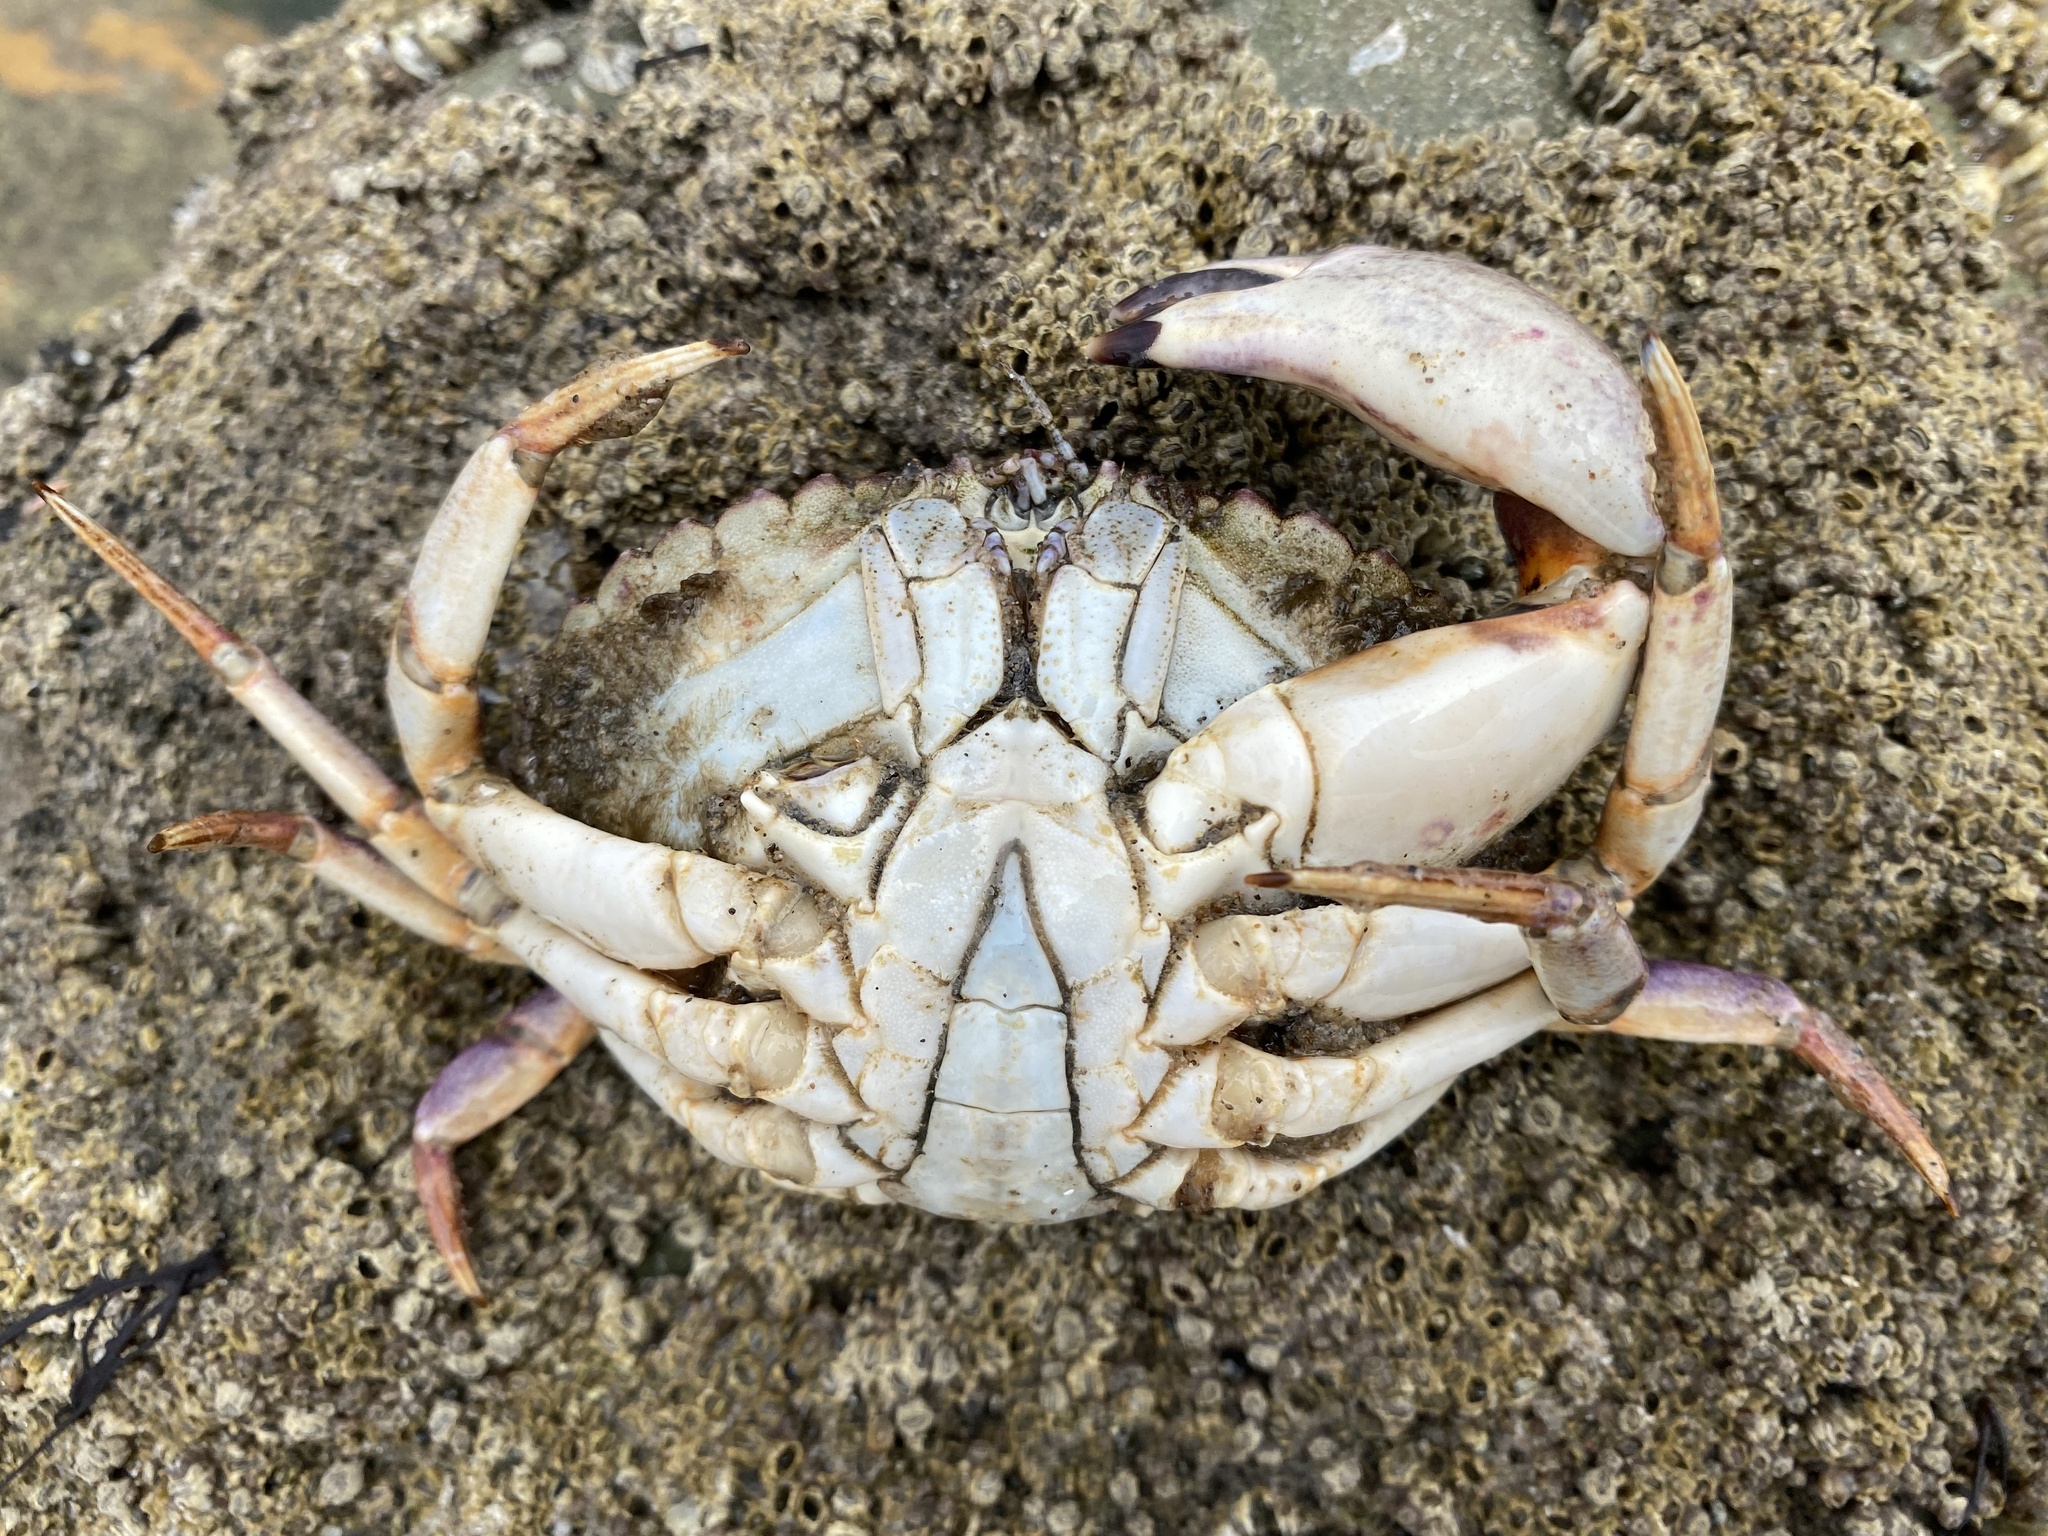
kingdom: Animalia
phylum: Arthropoda
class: Malacostraca
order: Decapoda
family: Cancridae
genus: Metacarcinus
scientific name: Metacarcinus anthonyi
